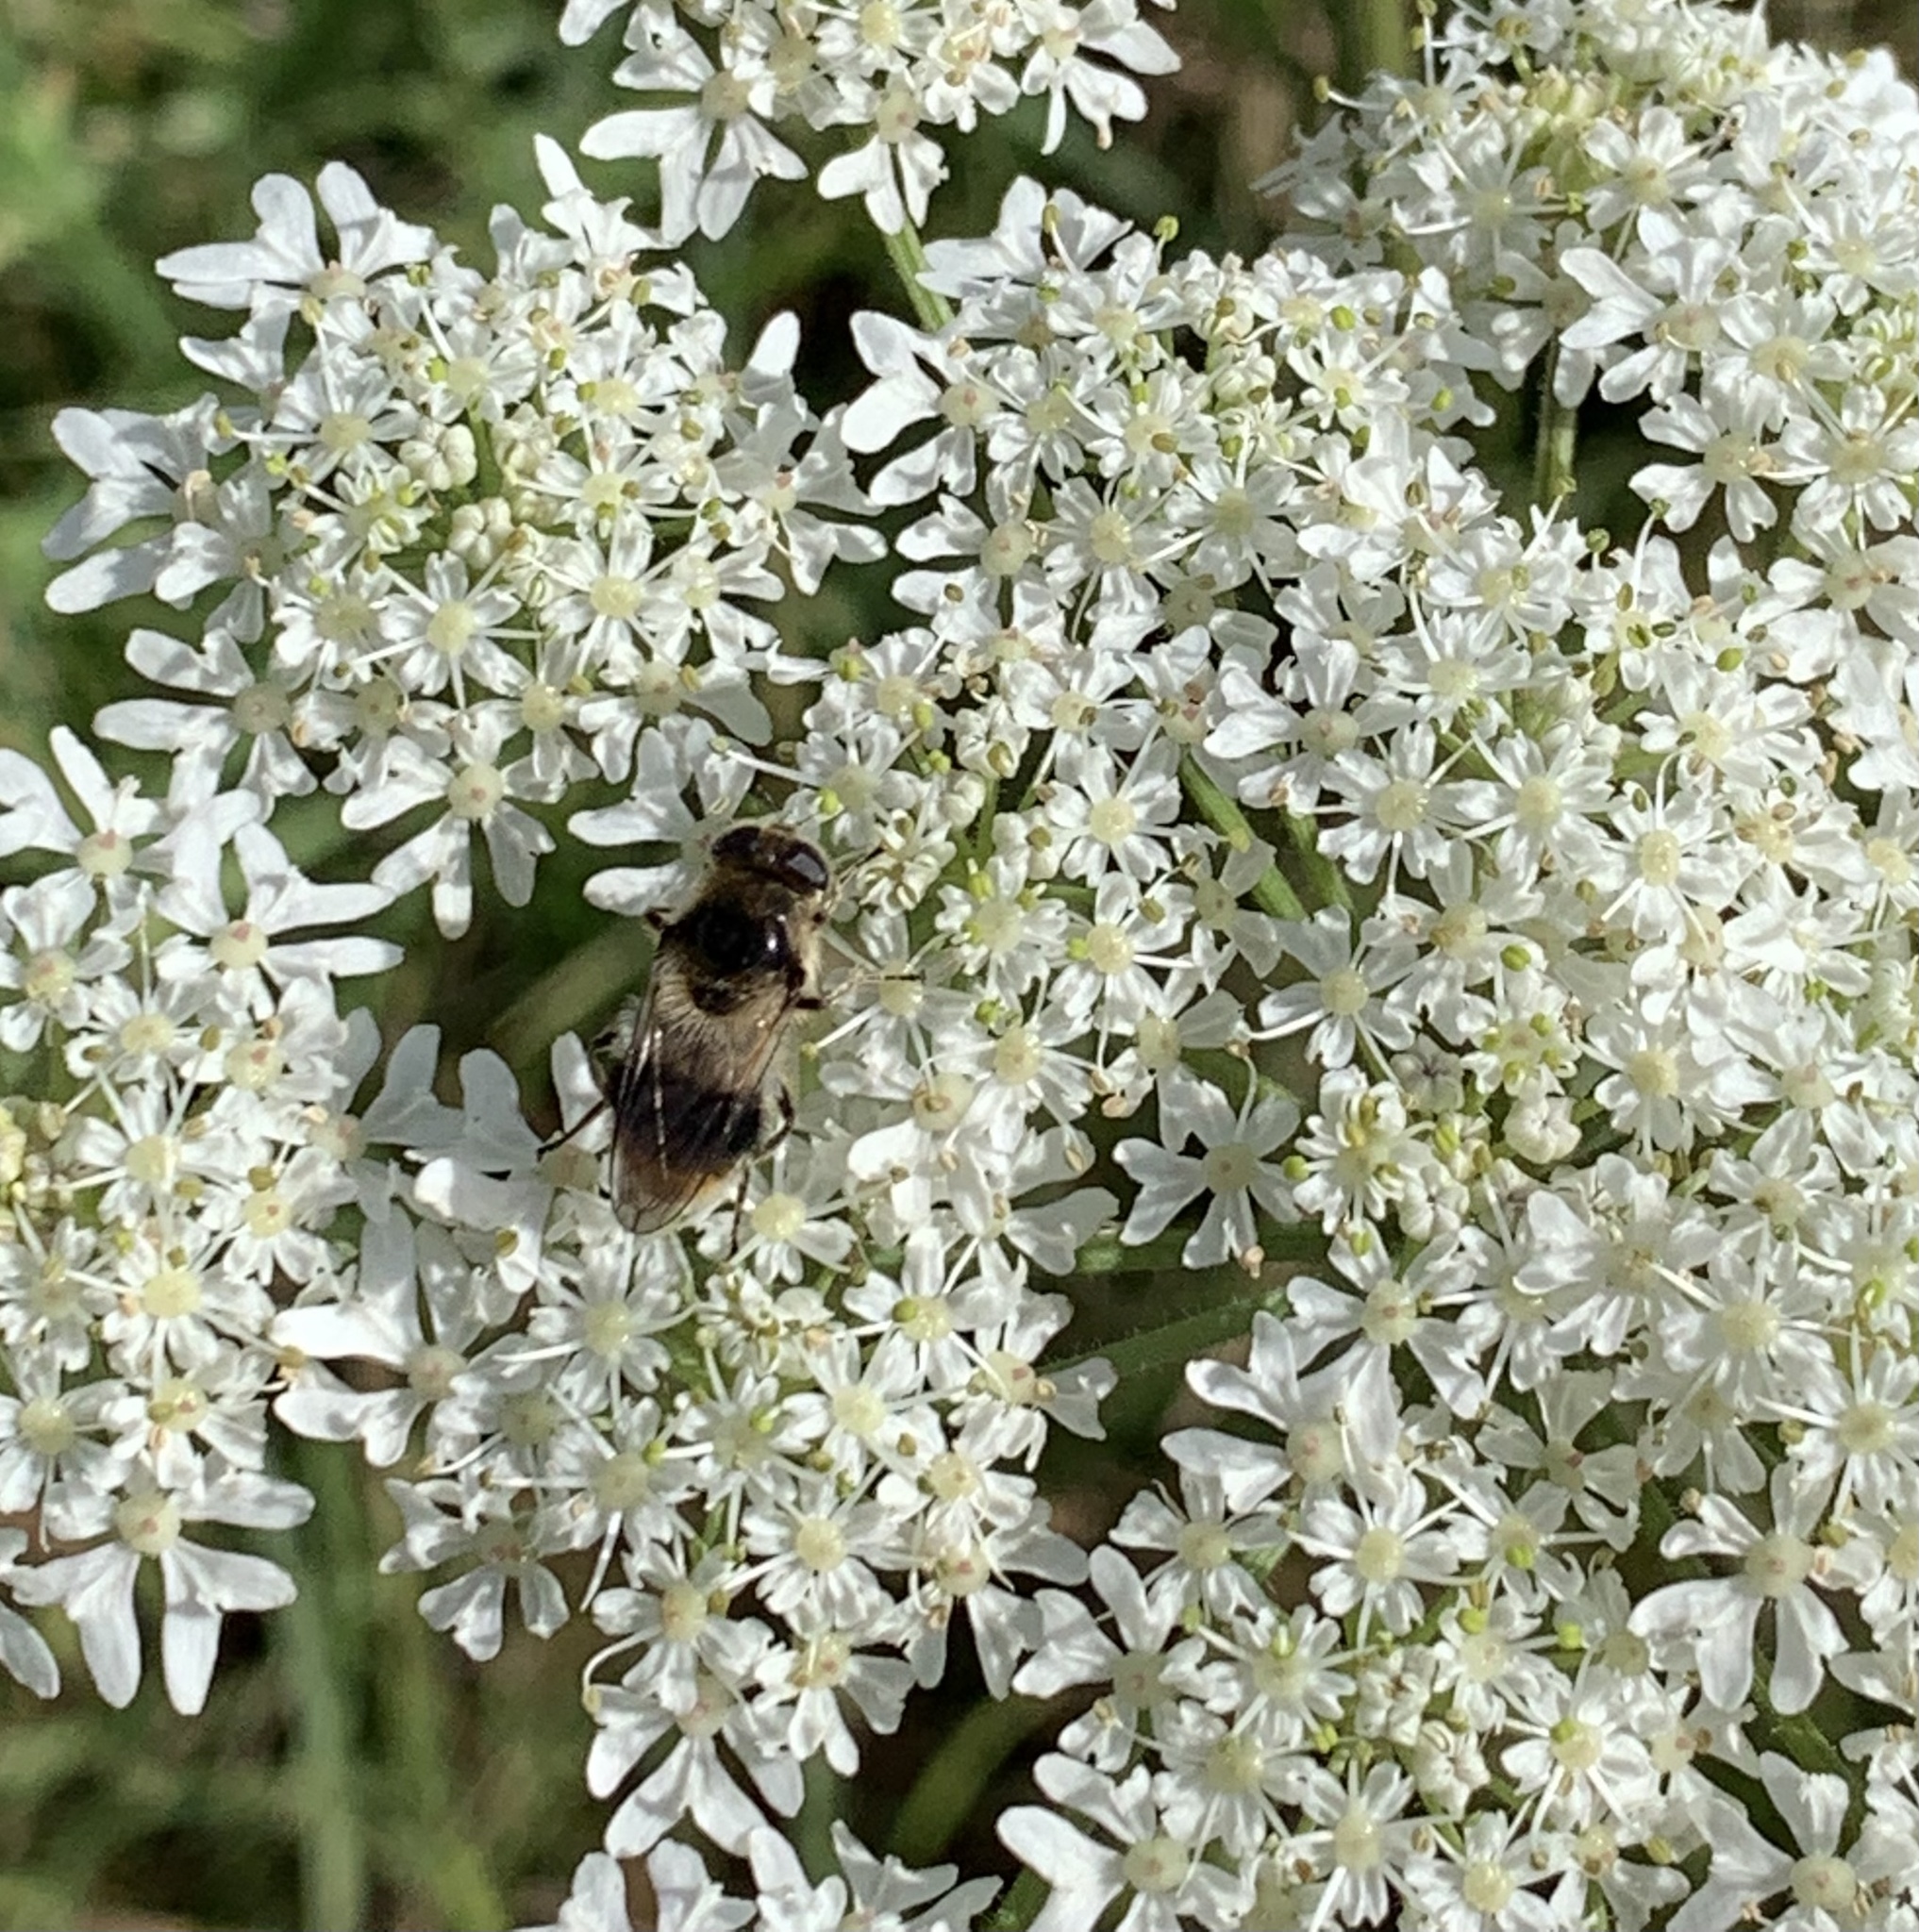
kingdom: Animalia
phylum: Arthropoda
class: Insecta
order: Diptera
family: Syrphidae
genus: Cheilosia
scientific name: Cheilosia illustrata
